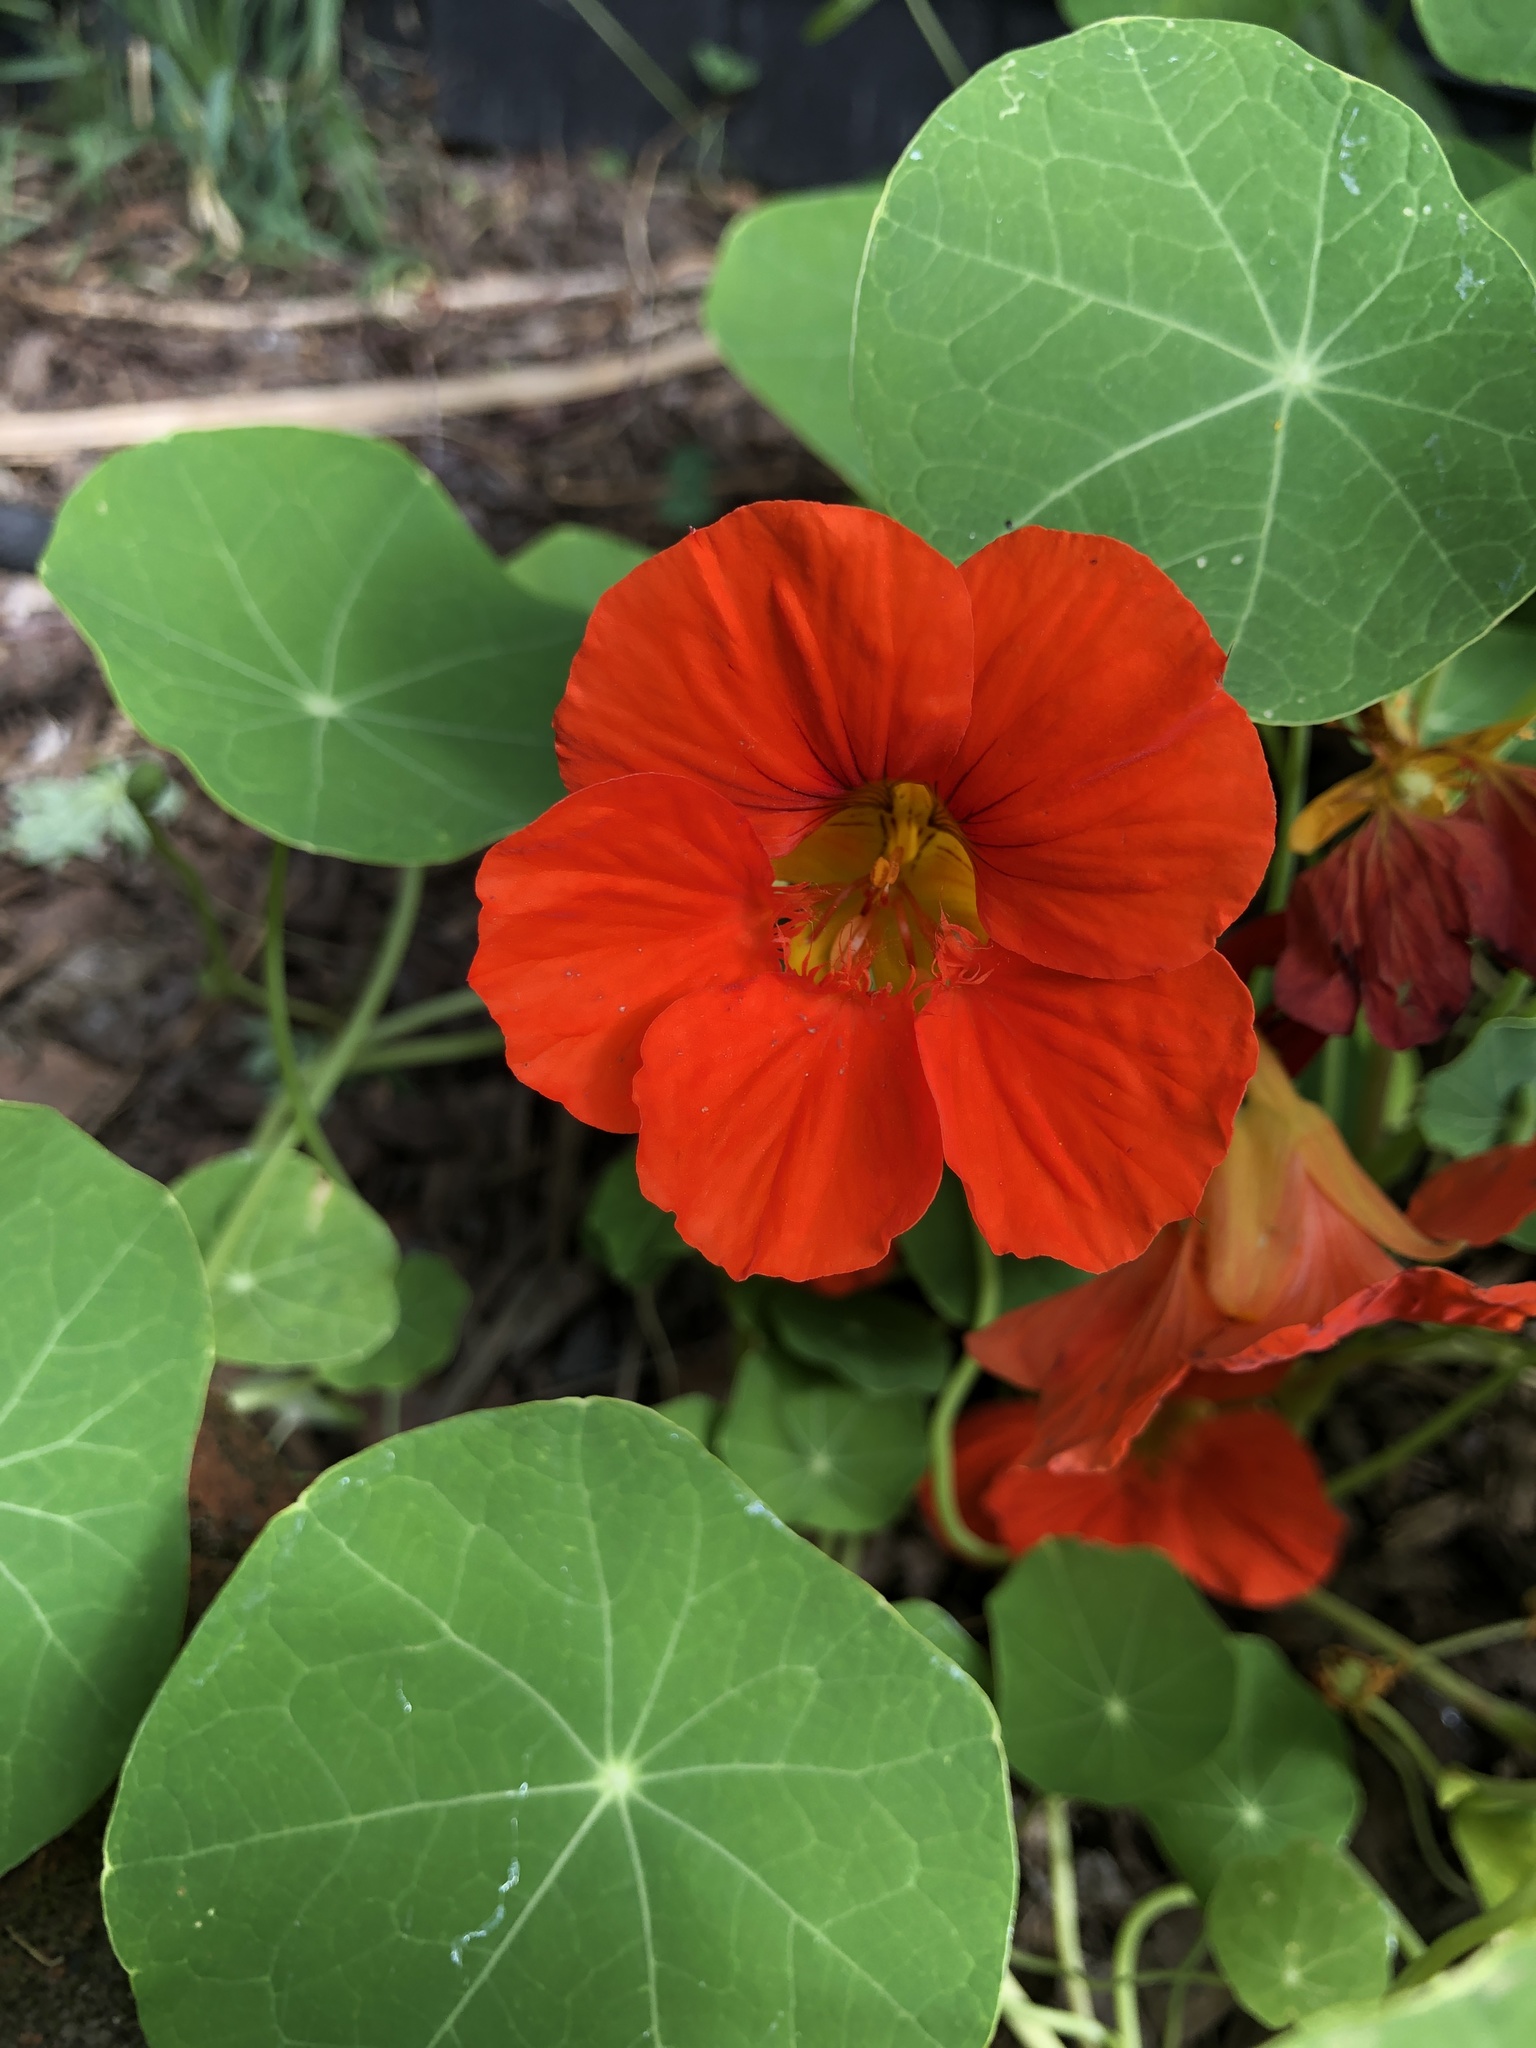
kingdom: Plantae
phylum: Tracheophyta
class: Magnoliopsida
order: Brassicales
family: Tropaeolaceae
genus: Tropaeolum
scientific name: Tropaeolum majus
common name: Nasturtium
